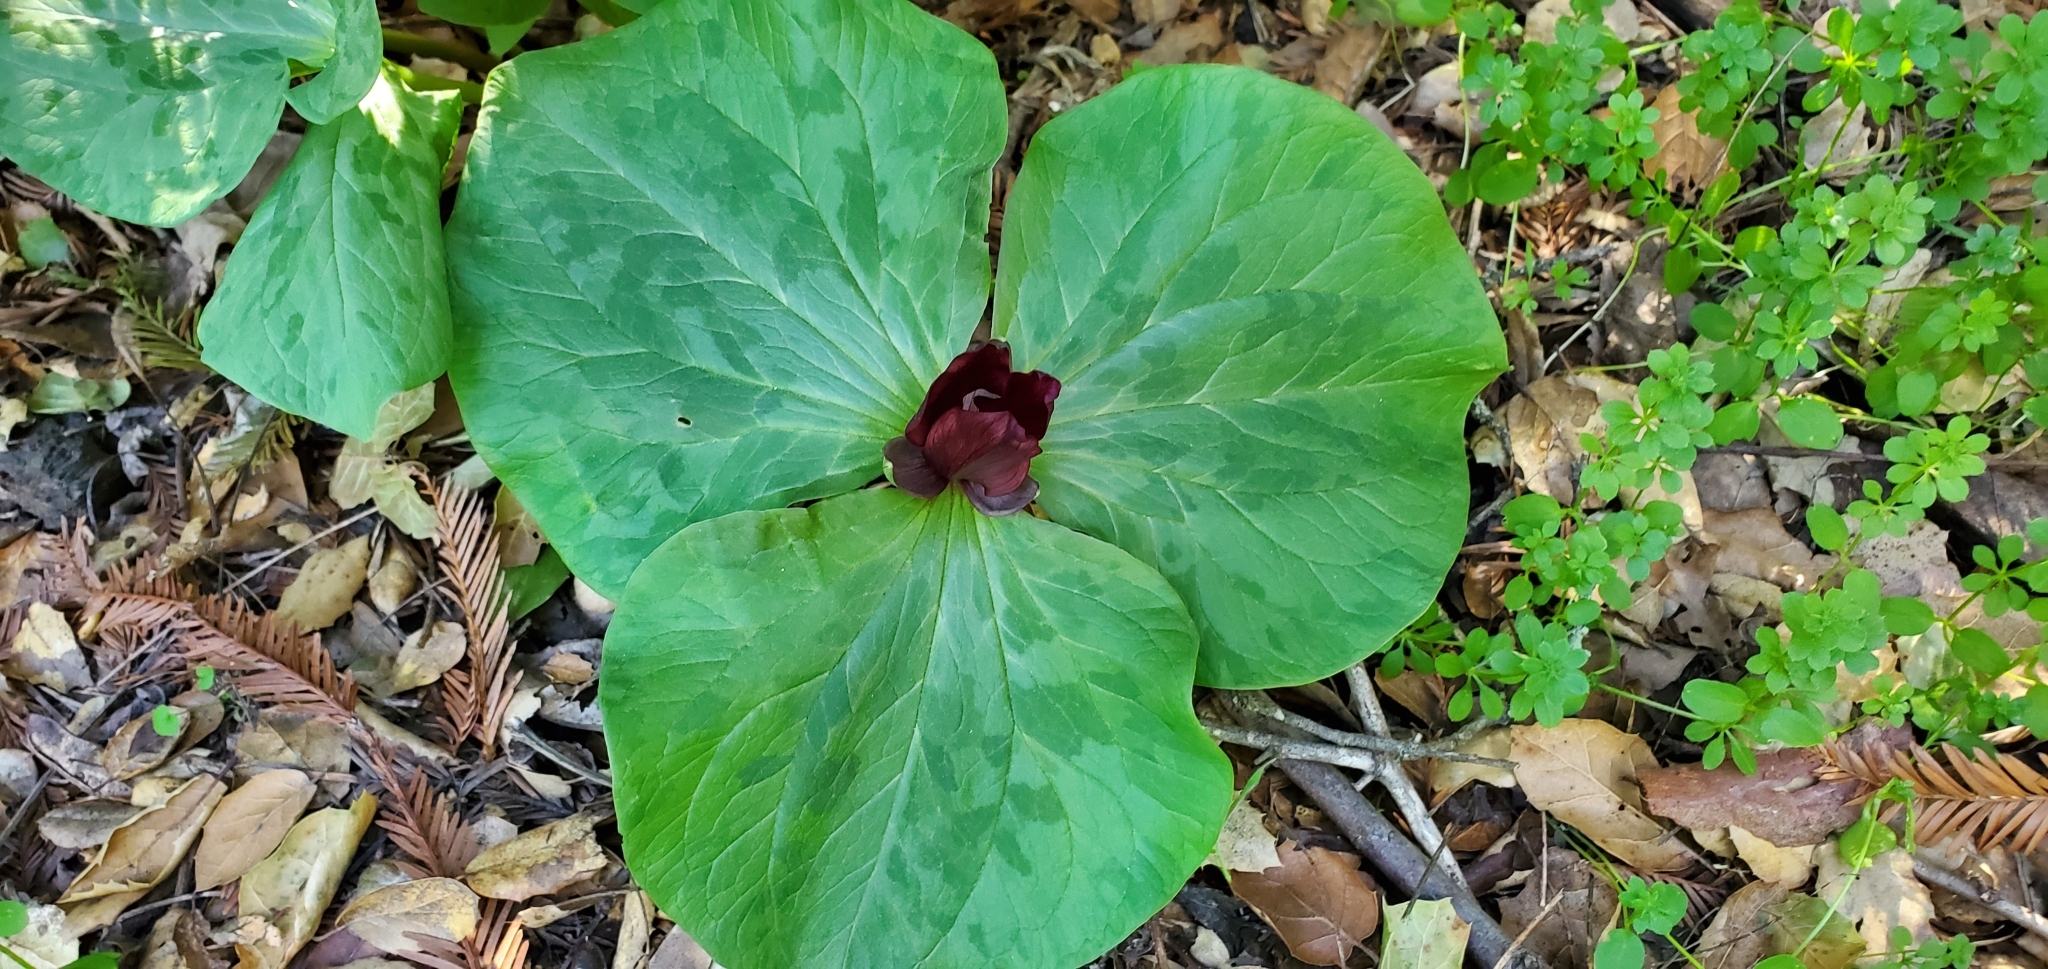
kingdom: Plantae
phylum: Tracheophyta
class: Liliopsida
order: Liliales
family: Melanthiaceae
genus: Trillium
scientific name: Trillium chloropetalum
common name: Giant trillium
